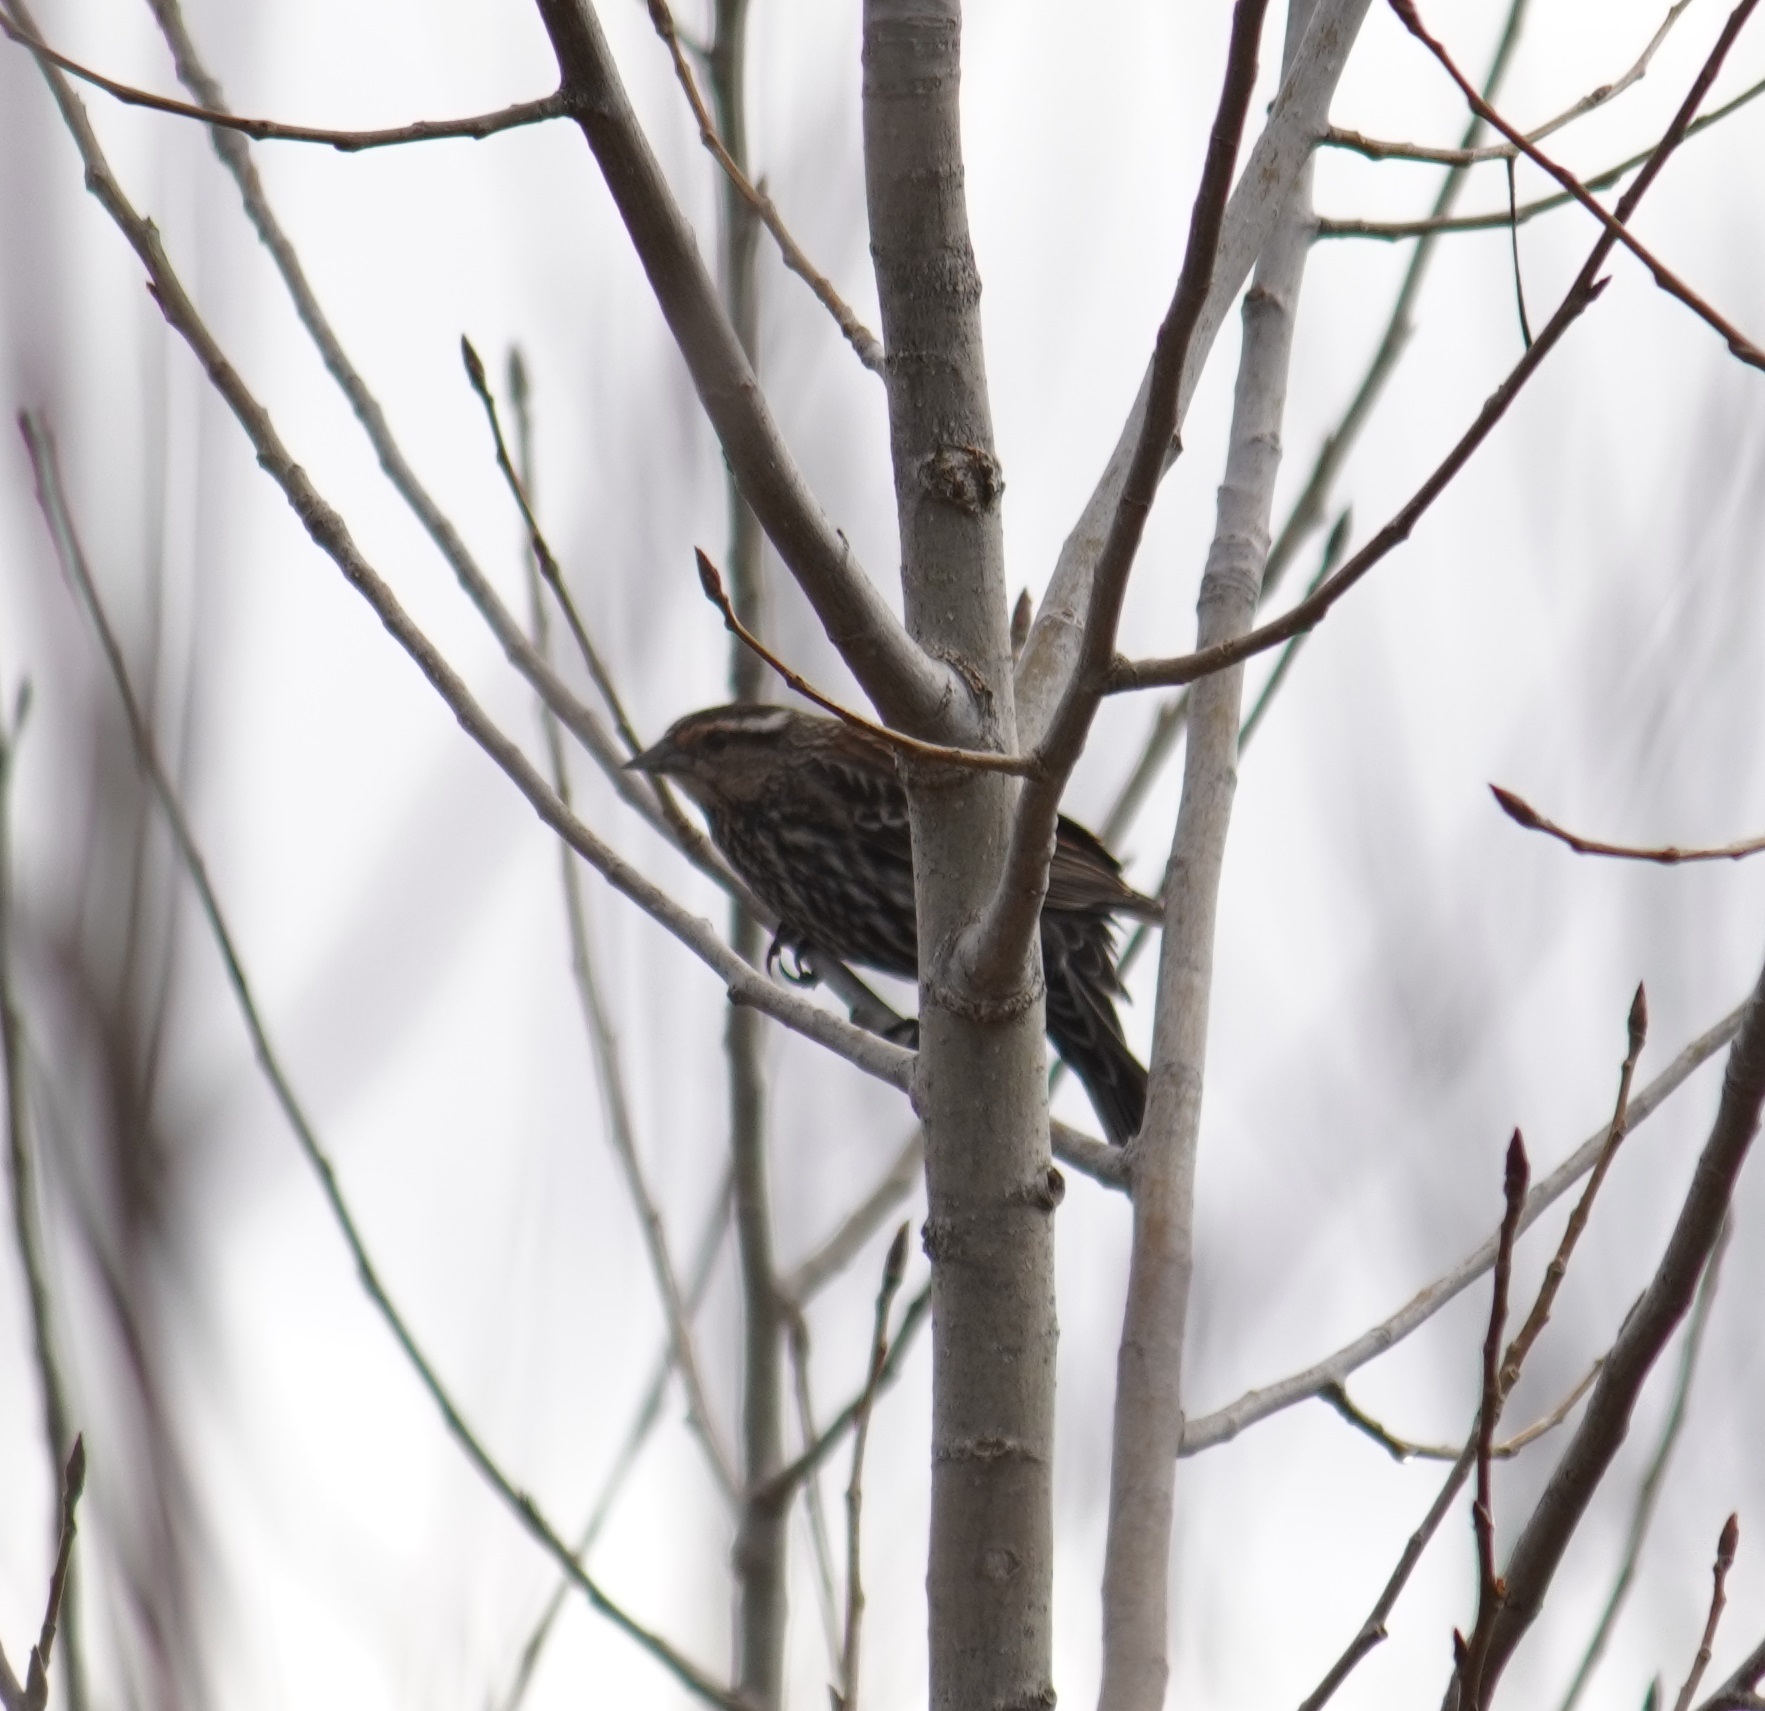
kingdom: Animalia
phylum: Chordata
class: Aves
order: Passeriformes
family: Icteridae
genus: Agelaius
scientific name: Agelaius phoeniceus
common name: Red-winged blackbird
